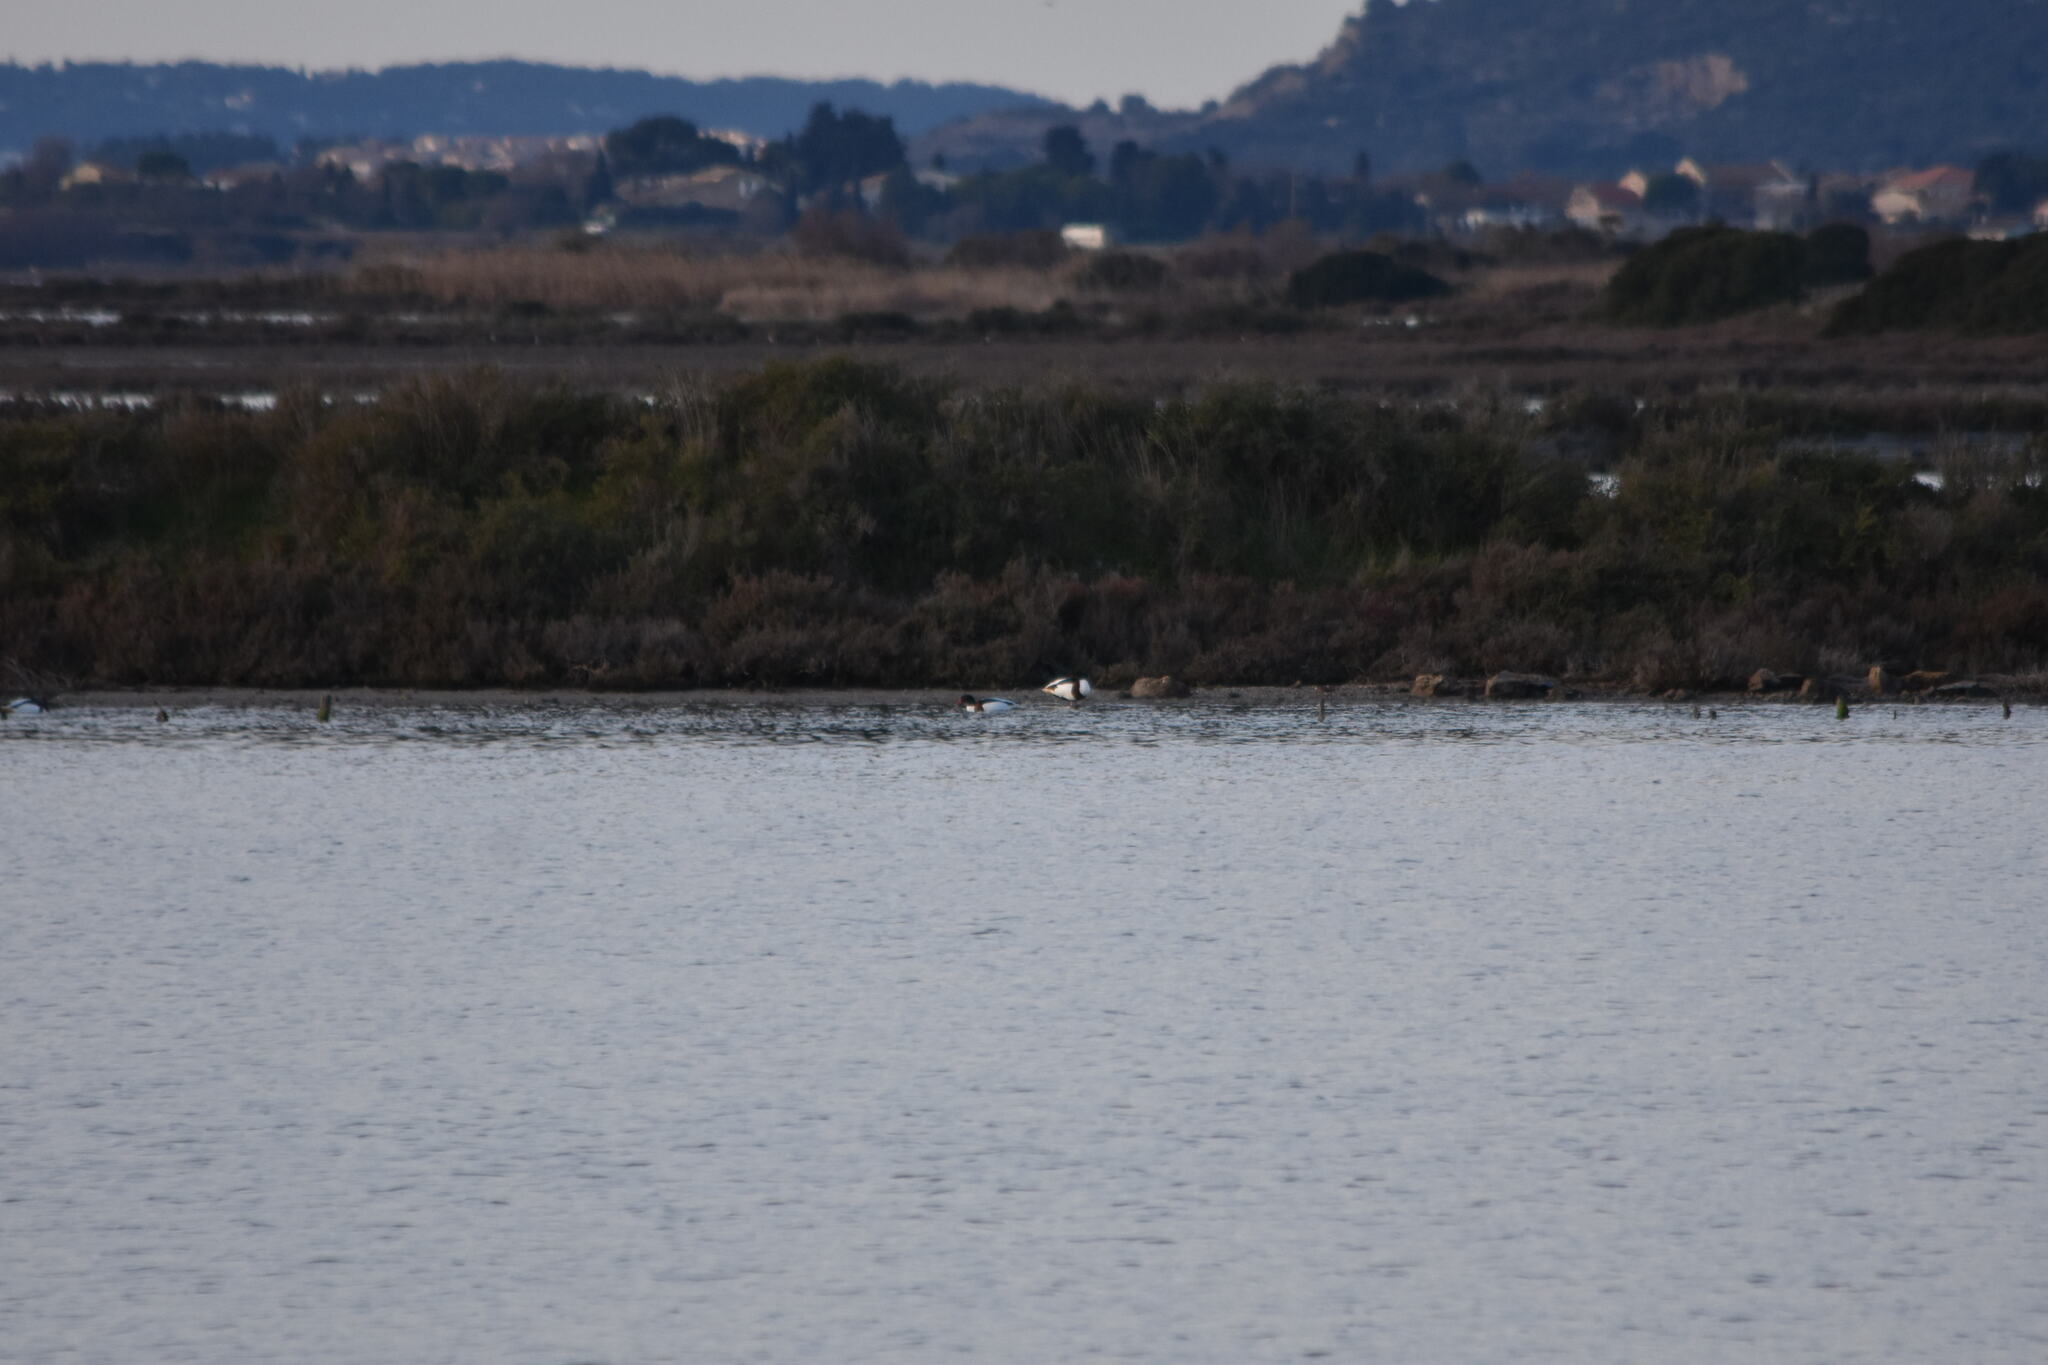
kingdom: Animalia
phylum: Chordata
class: Aves
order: Anseriformes
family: Anatidae
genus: Tadorna
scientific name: Tadorna tadorna
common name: Common shelduck
